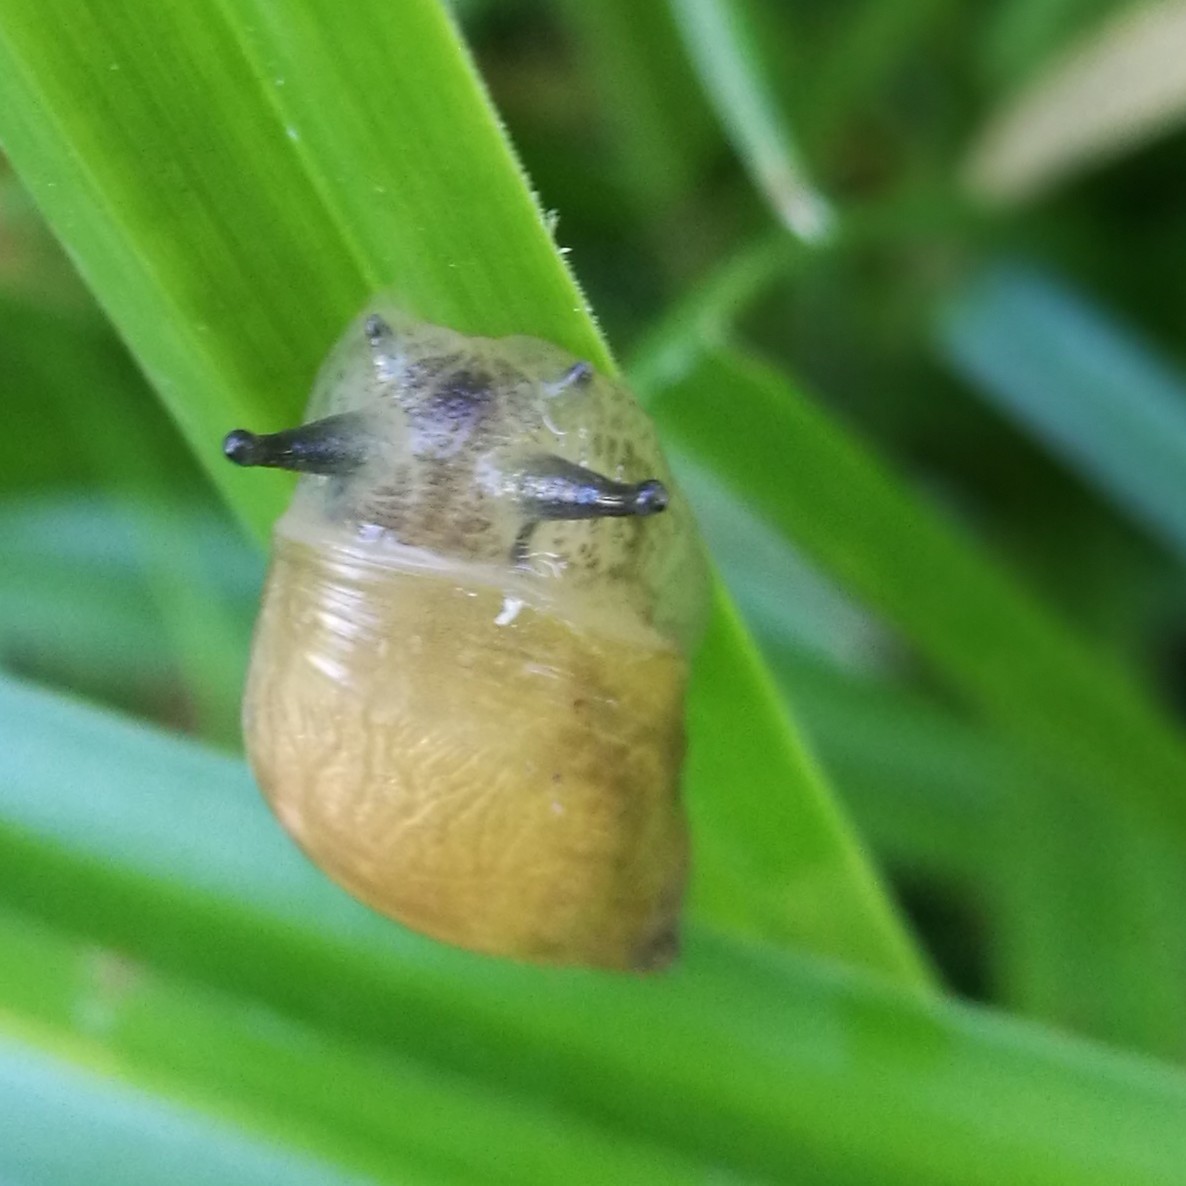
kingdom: Animalia
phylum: Mollusca
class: Gastropoda
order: Stylommatophora
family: Succineidae
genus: Succinea
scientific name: Succinea putris
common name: European ambersnail
